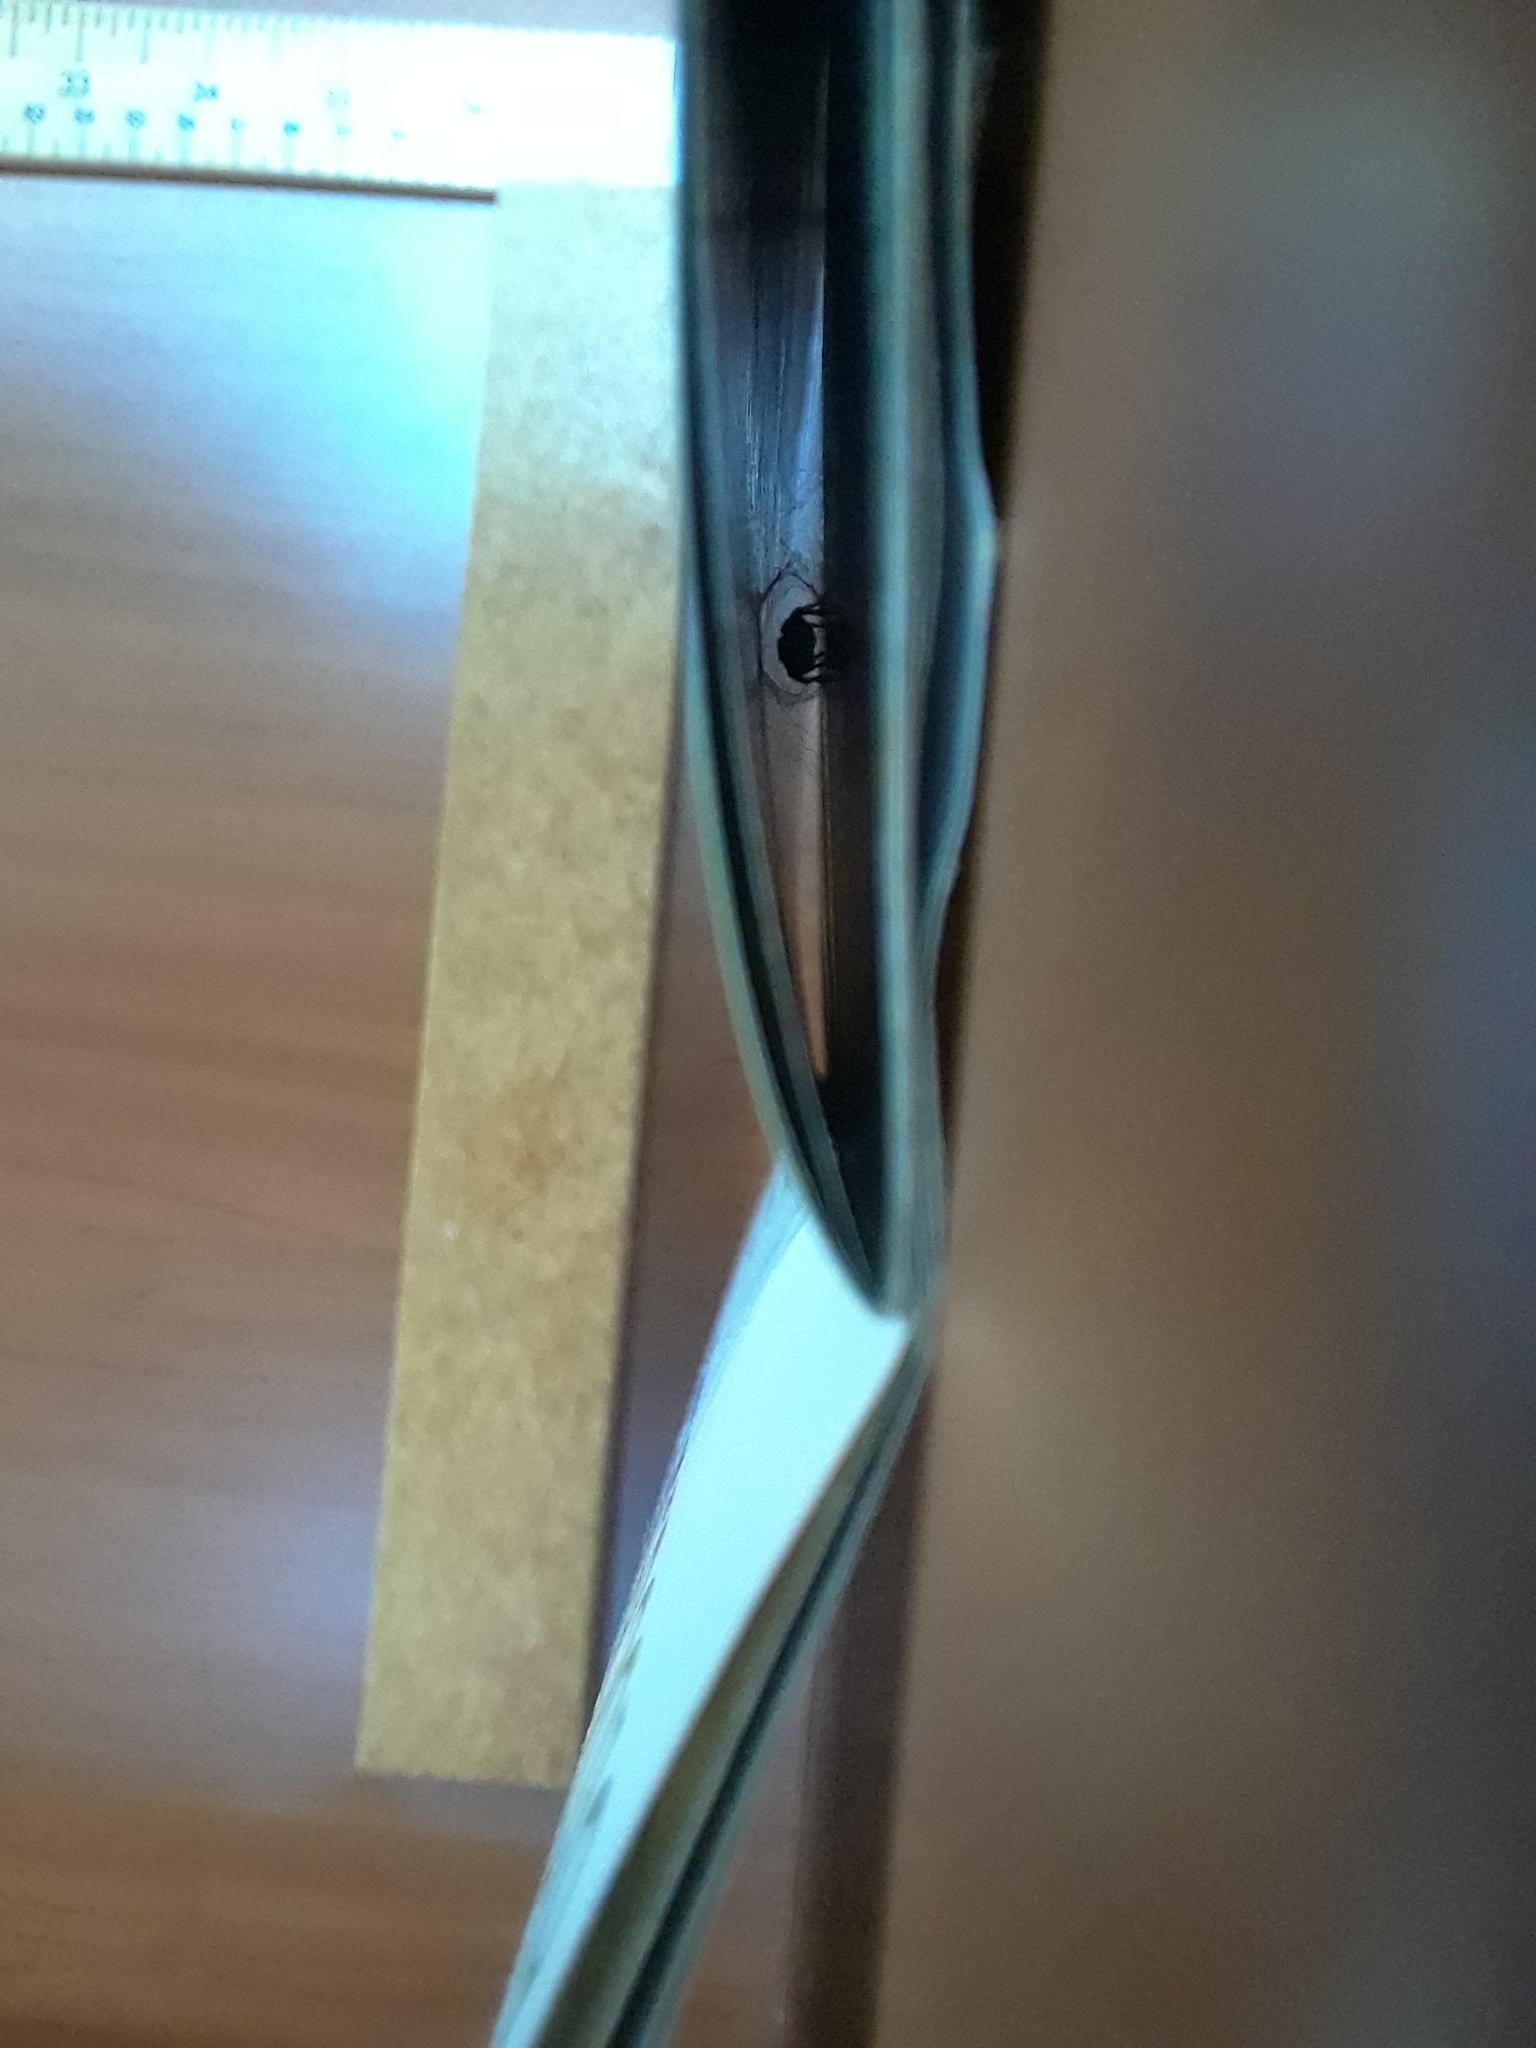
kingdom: Animalia
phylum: Arthropoda
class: Arachnida
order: Araneae
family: Salticidae
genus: Habronattus
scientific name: Habronattus decorus
